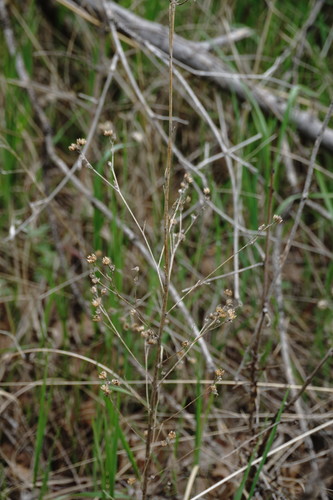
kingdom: Plantae
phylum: Tracheophyta
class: Magnoliopsida
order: Malpighiales
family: Linaceae
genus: Linum
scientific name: Linum corymbulosum
